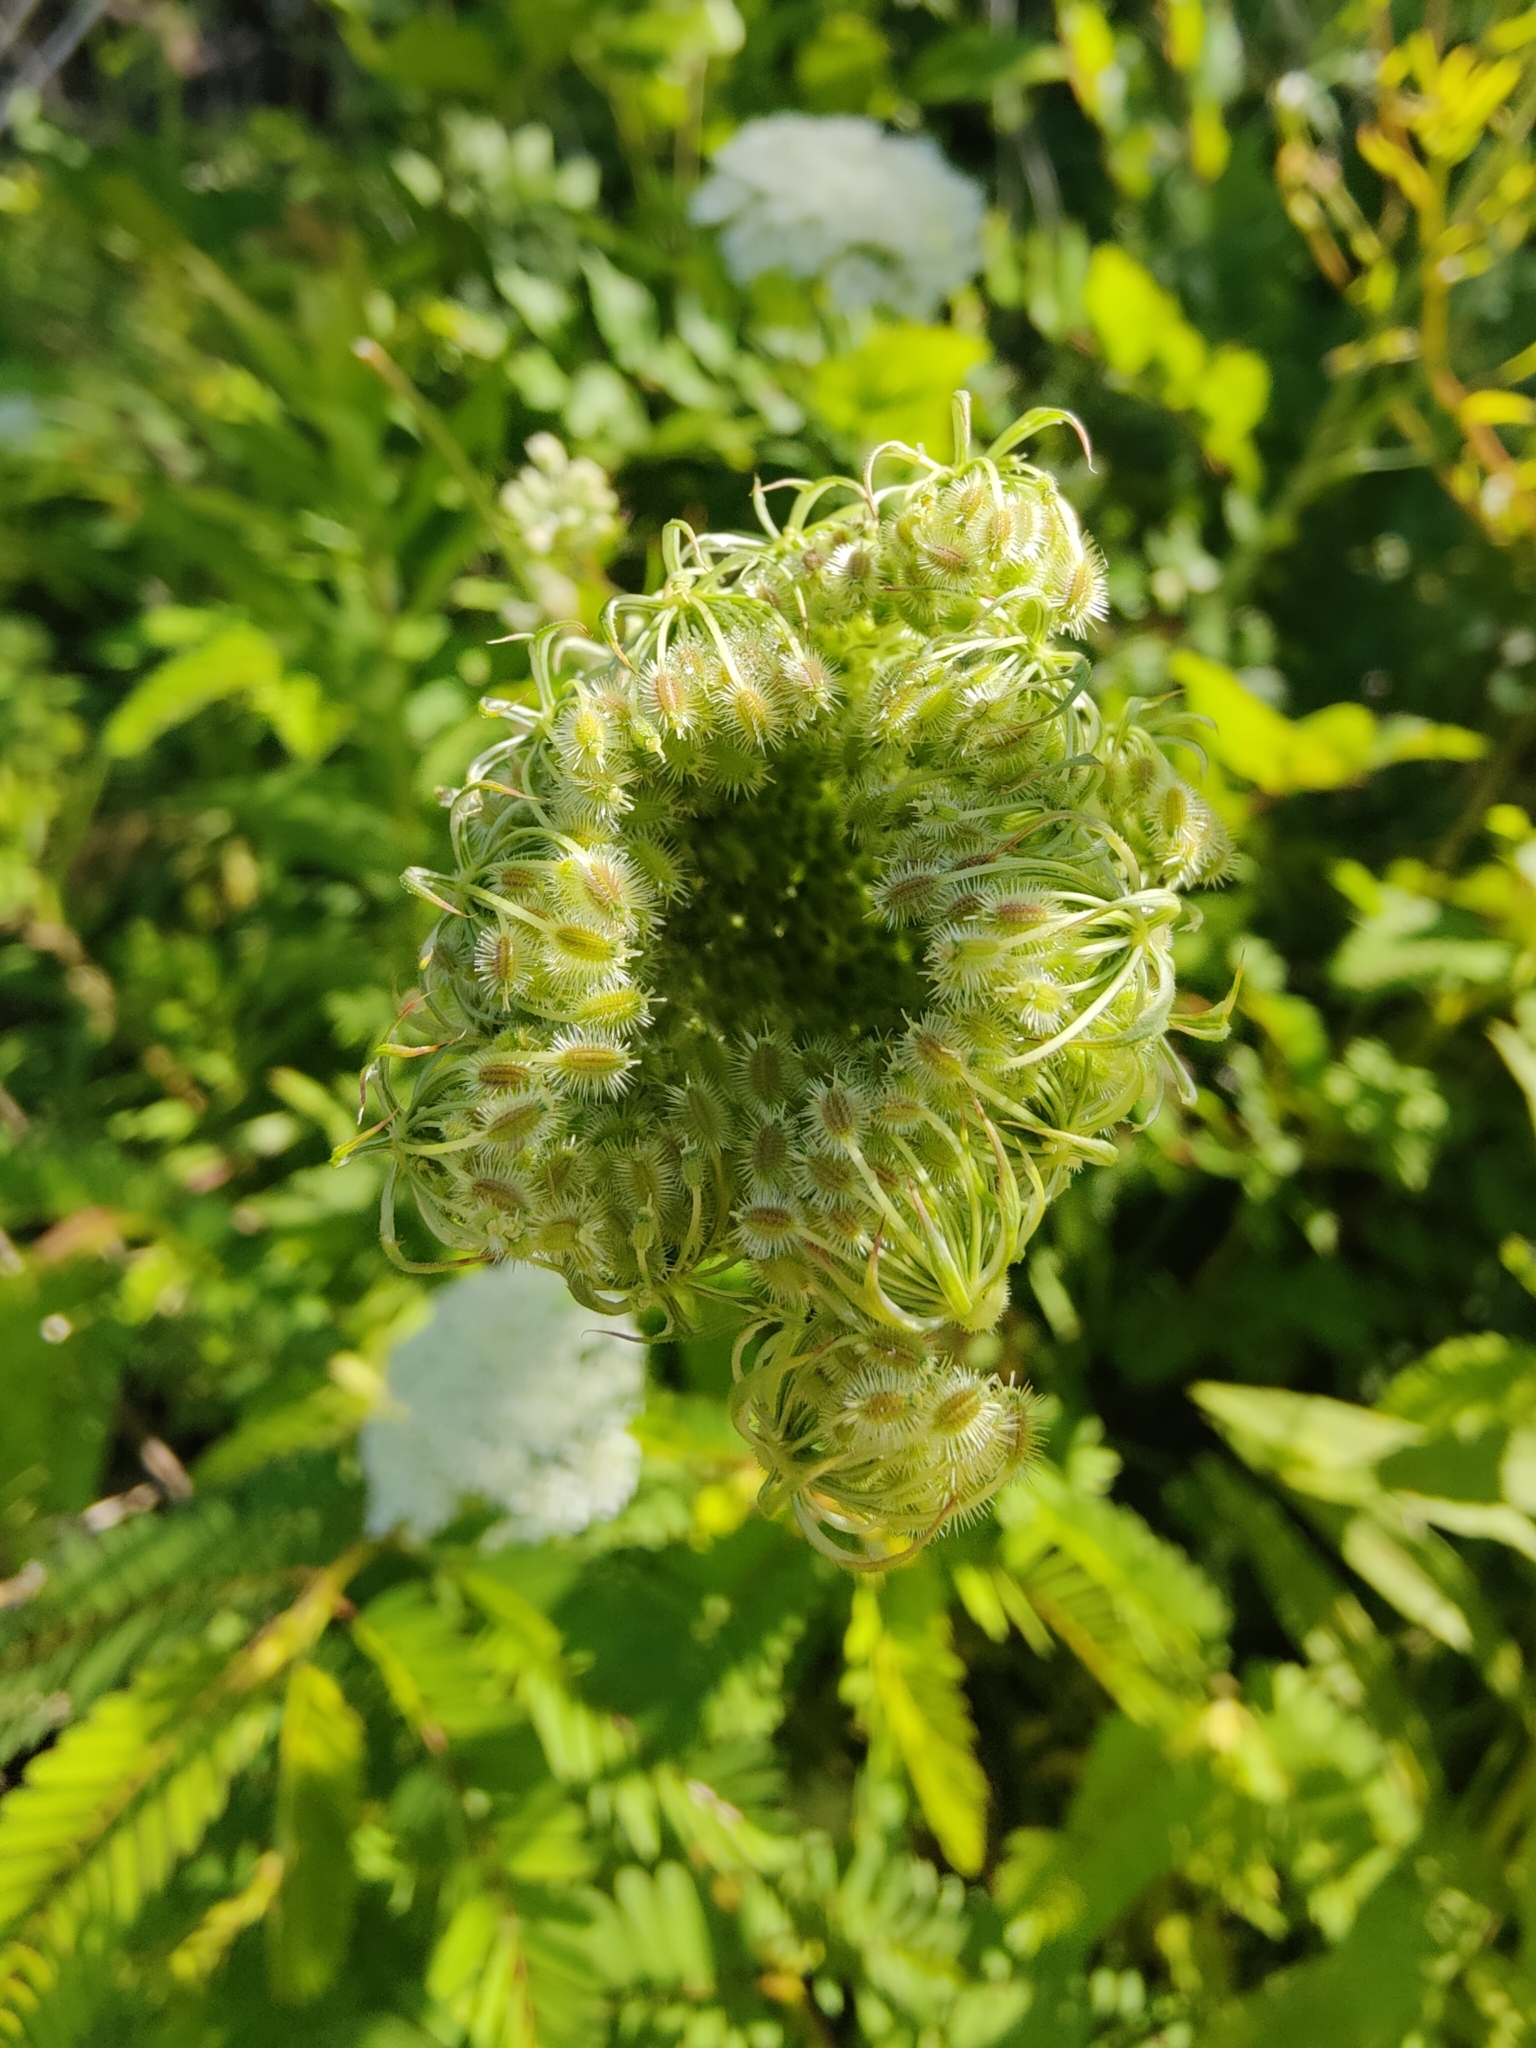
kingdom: Plantae
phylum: Tracheophyta
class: Magnoliopsida
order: Apiales
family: Apiaceae
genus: Daucus
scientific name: Daucus carota
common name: Wild carrot
